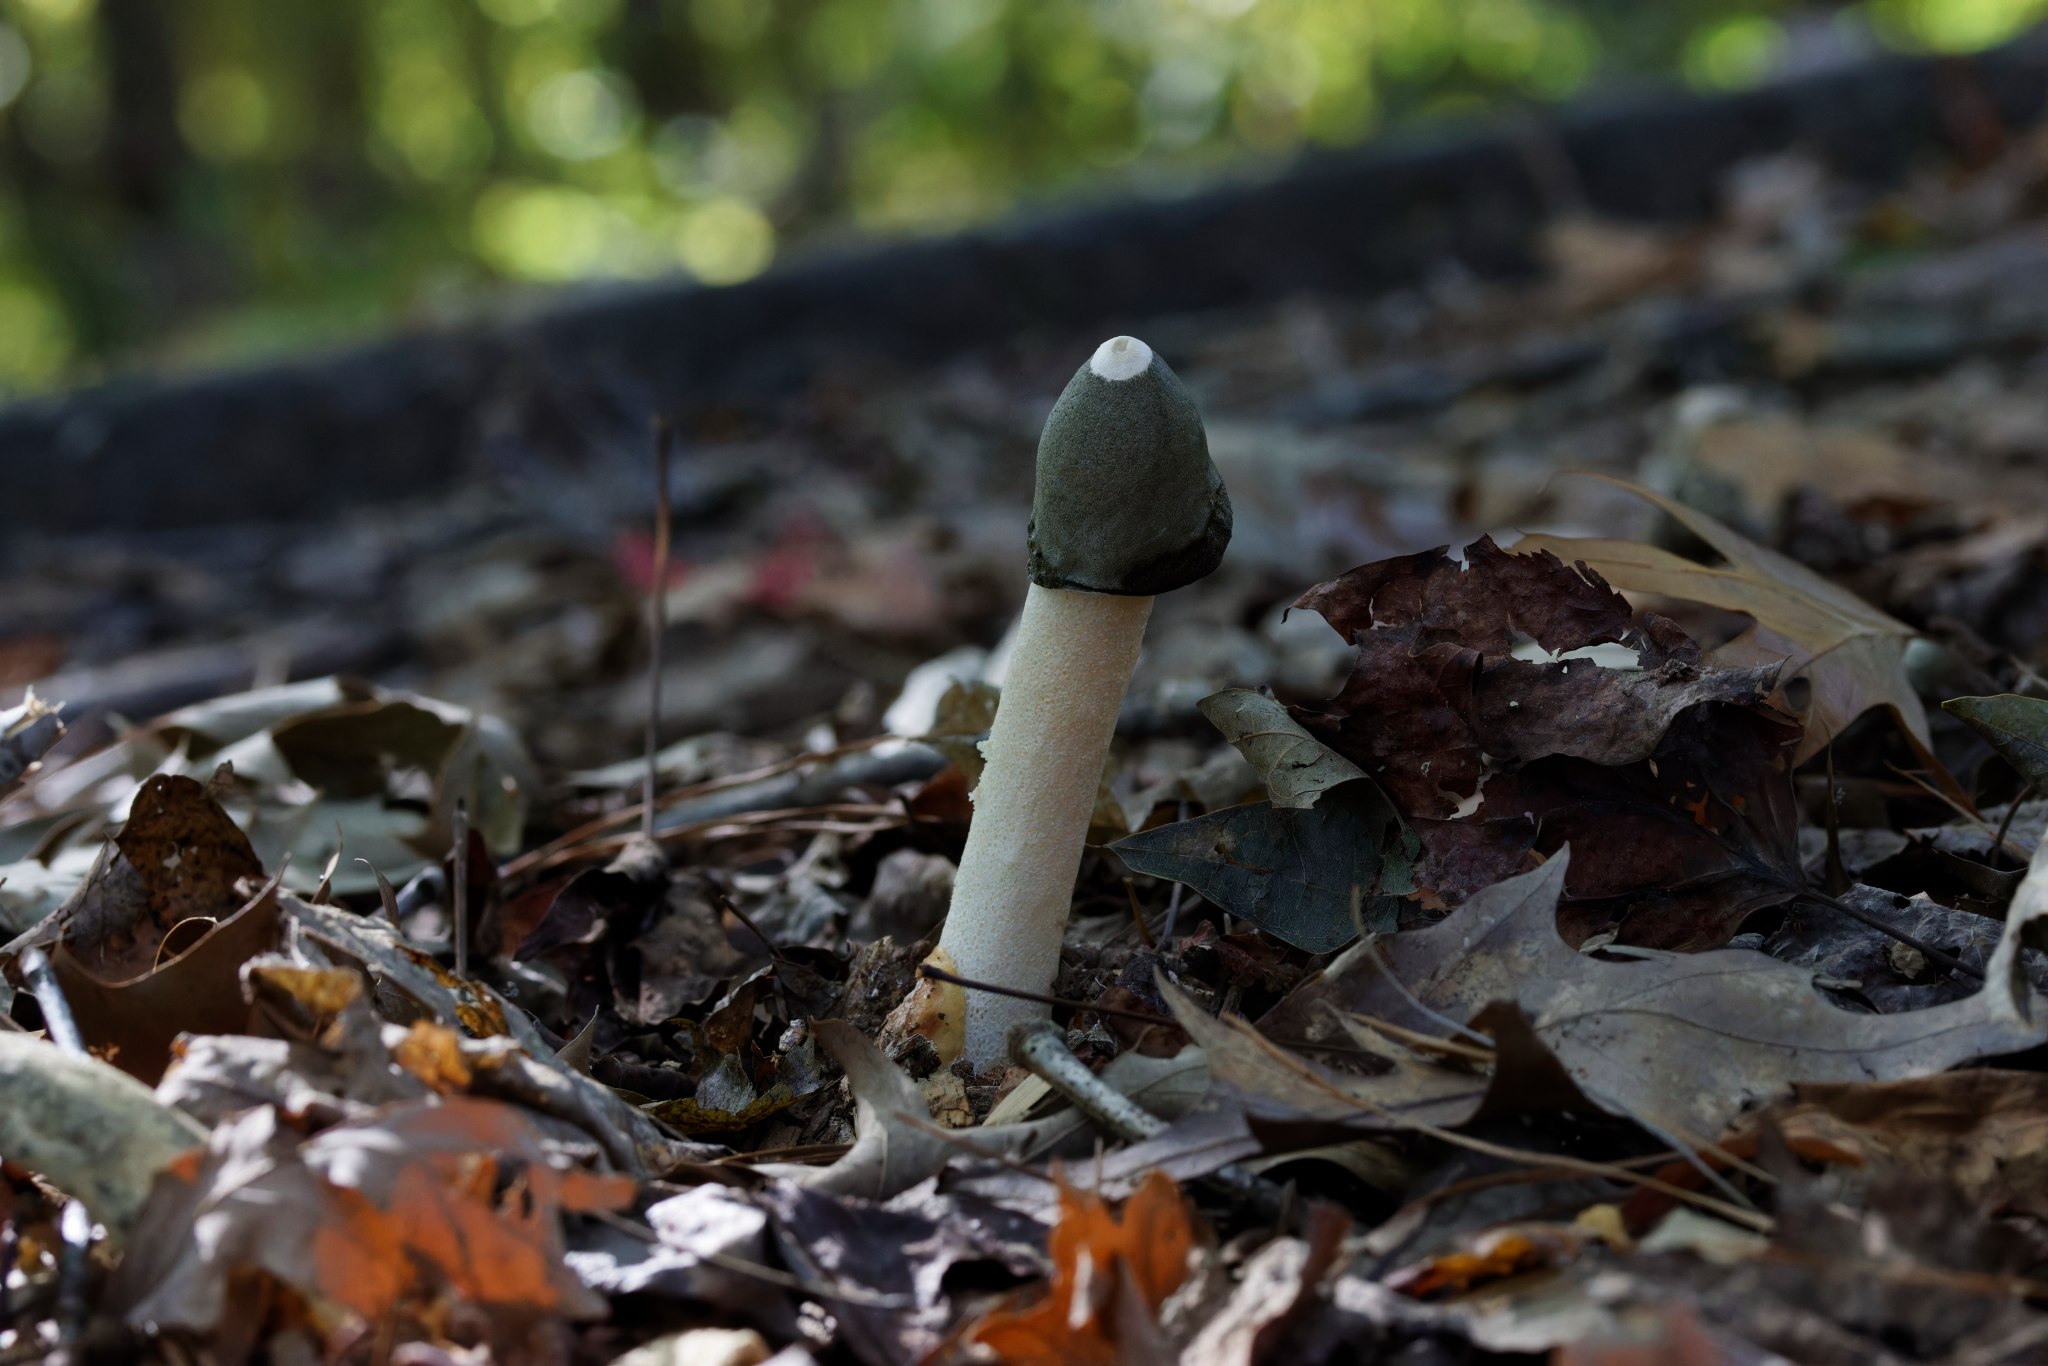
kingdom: Fungi
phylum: Basidiomycota
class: Agaricomycetes
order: Phallales
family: Phallaceae
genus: Phallus
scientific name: Phallus ravenelii
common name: Ravenel's stinkhorn
